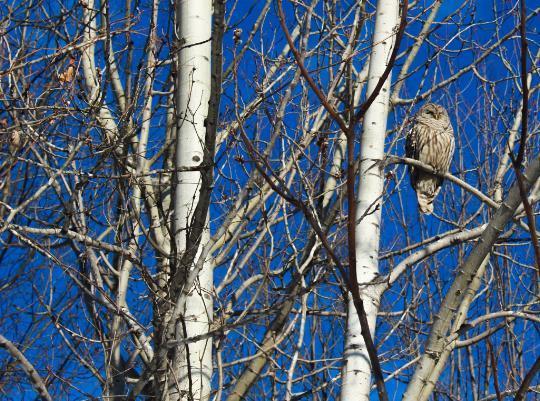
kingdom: Animalia
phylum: Chordata
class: Aves
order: Strigiformes
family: Strigidae
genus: Strix
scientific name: Strix varia
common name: Barred owl
